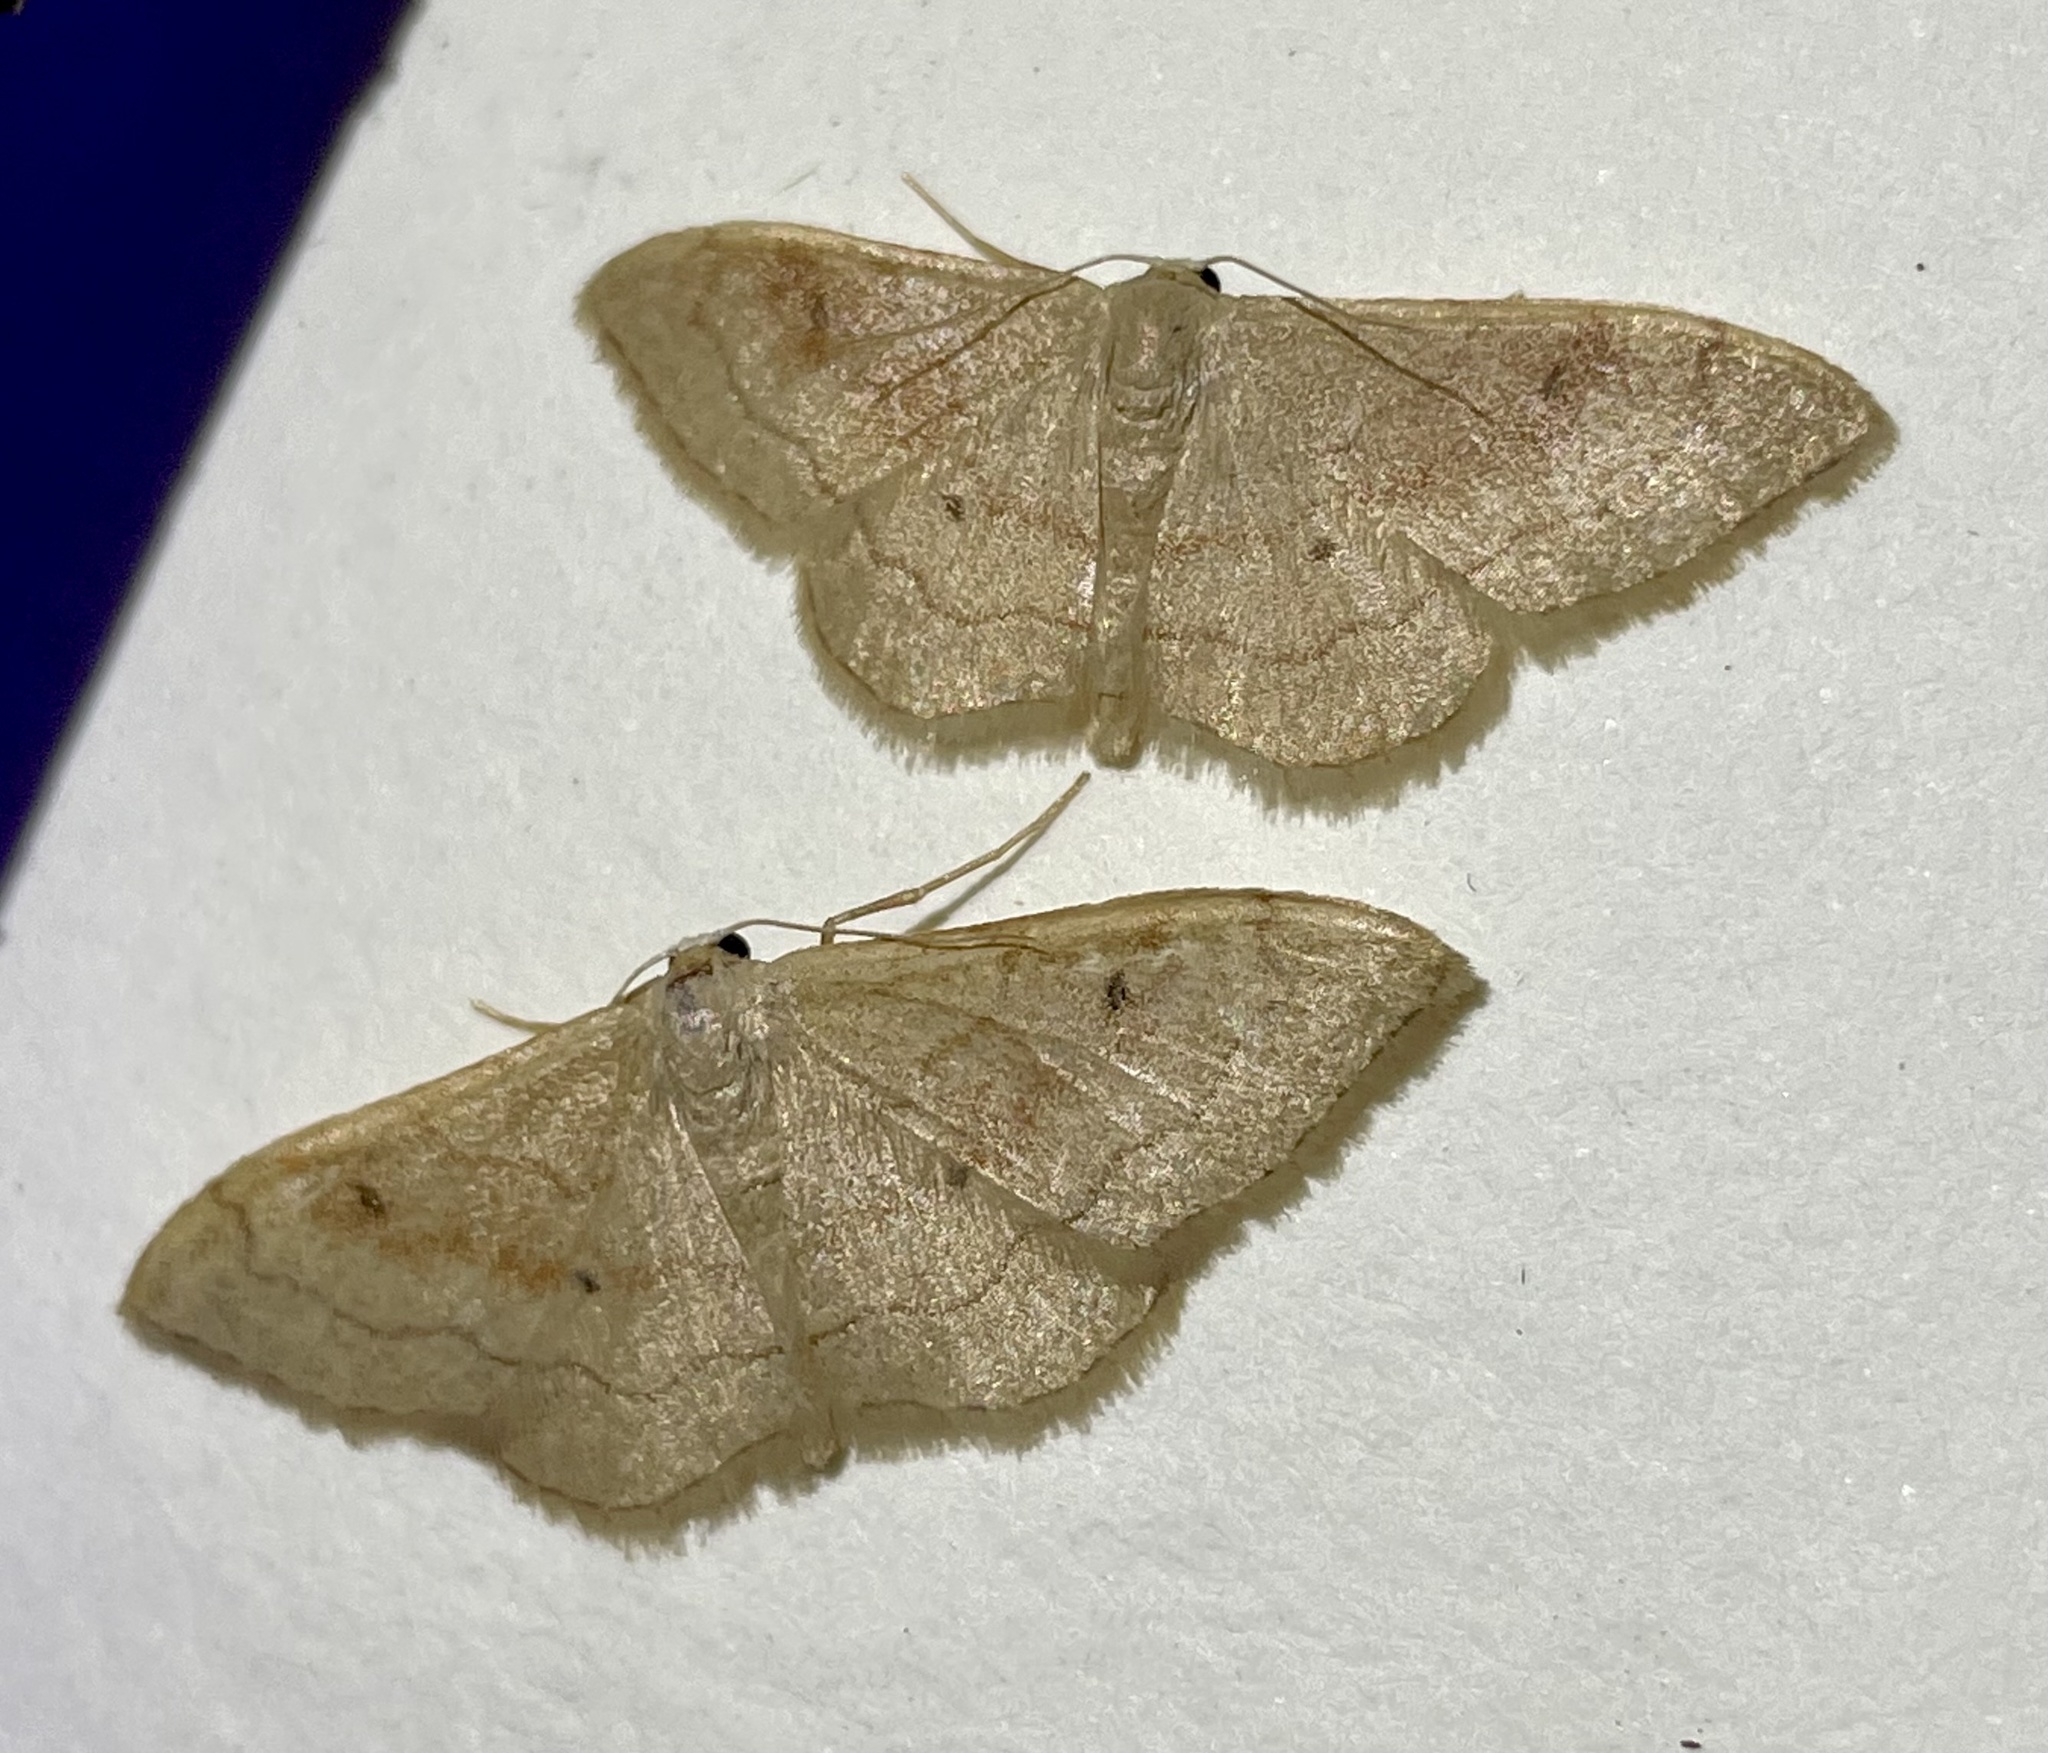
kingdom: Animalia
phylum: Arthropoda
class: Insecta
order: Lepidoptera
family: Geometridae
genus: Idaea
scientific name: Idaea bilinearia
